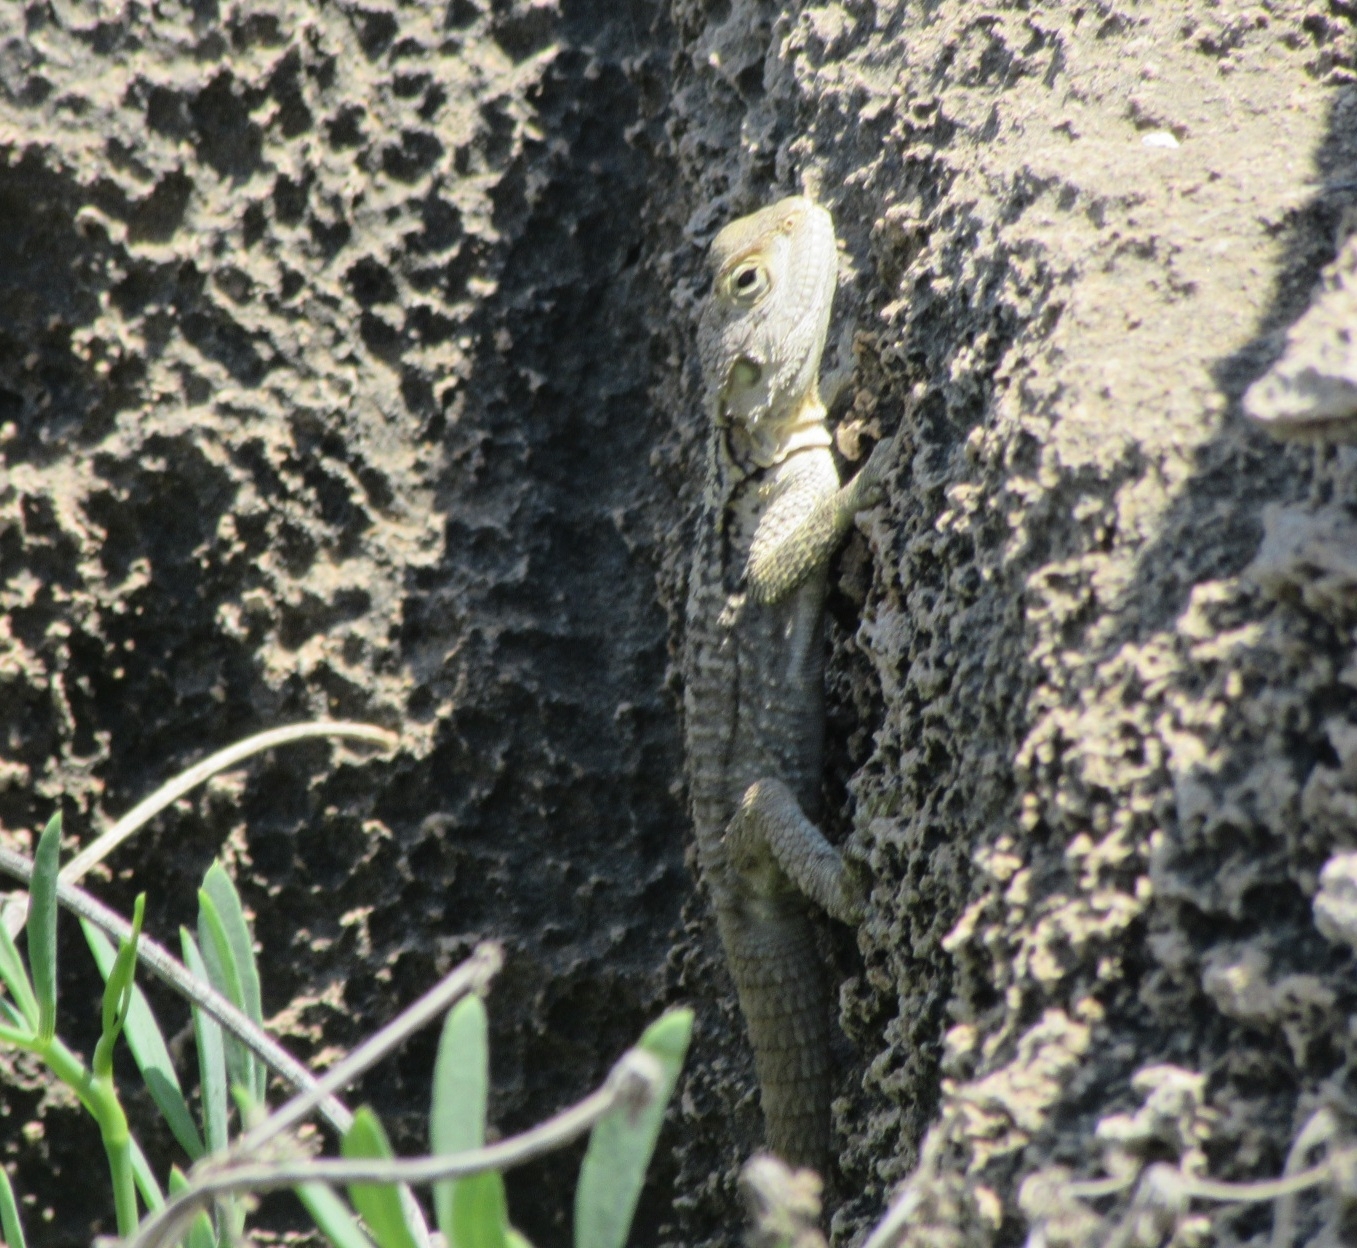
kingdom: Animalia
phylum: Chordata
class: Squamata
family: Agamidae
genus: Laudakia
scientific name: Laudakia
